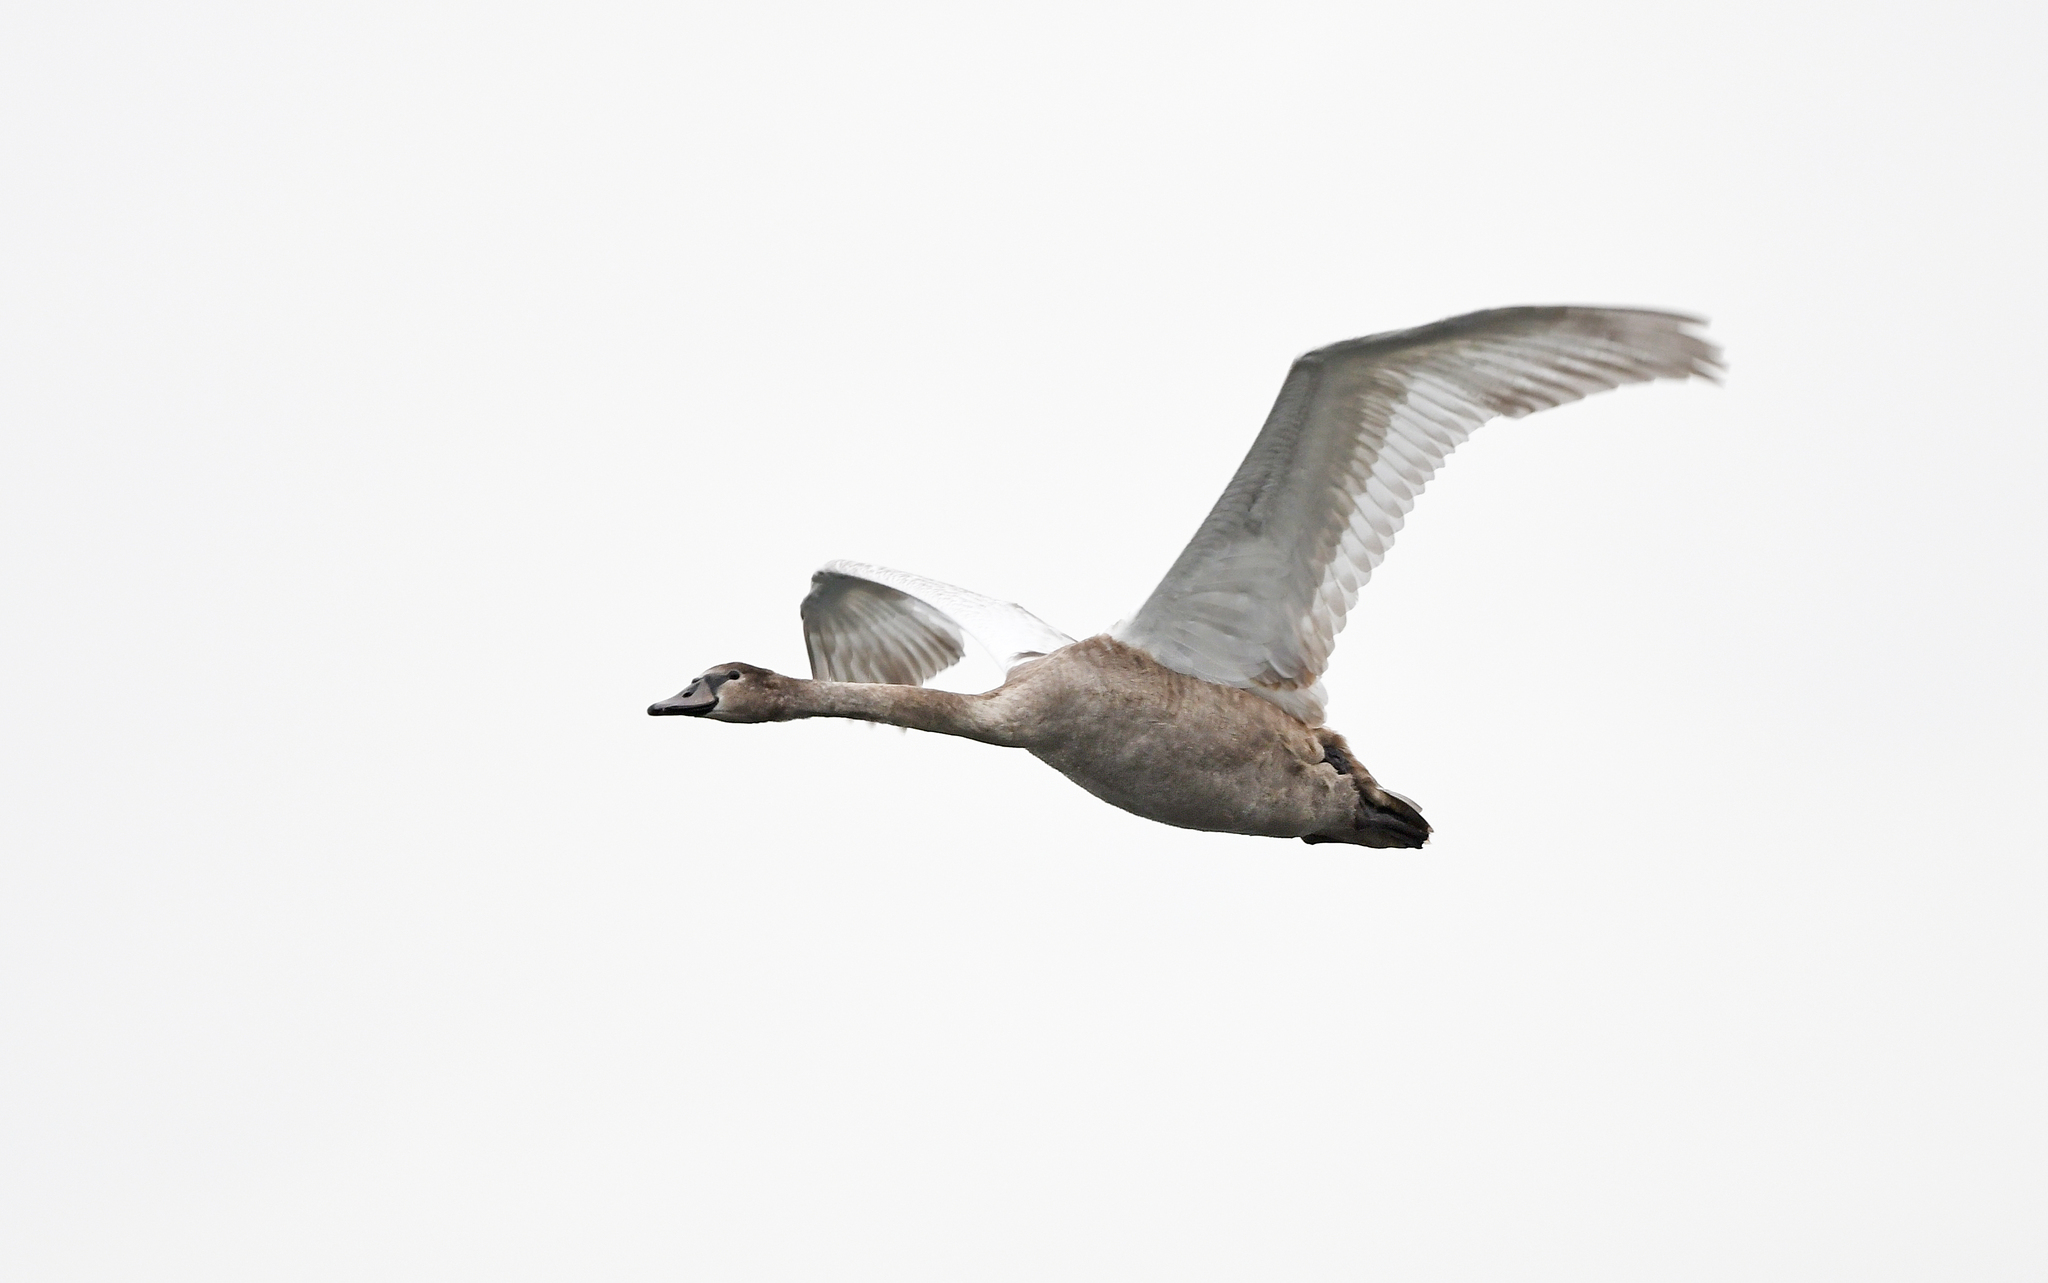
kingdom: Animalia
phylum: Chordata
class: Aves
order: Anseriformes
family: Anatidae
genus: Cygnus
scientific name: Cygnus olor
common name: Mute swan
